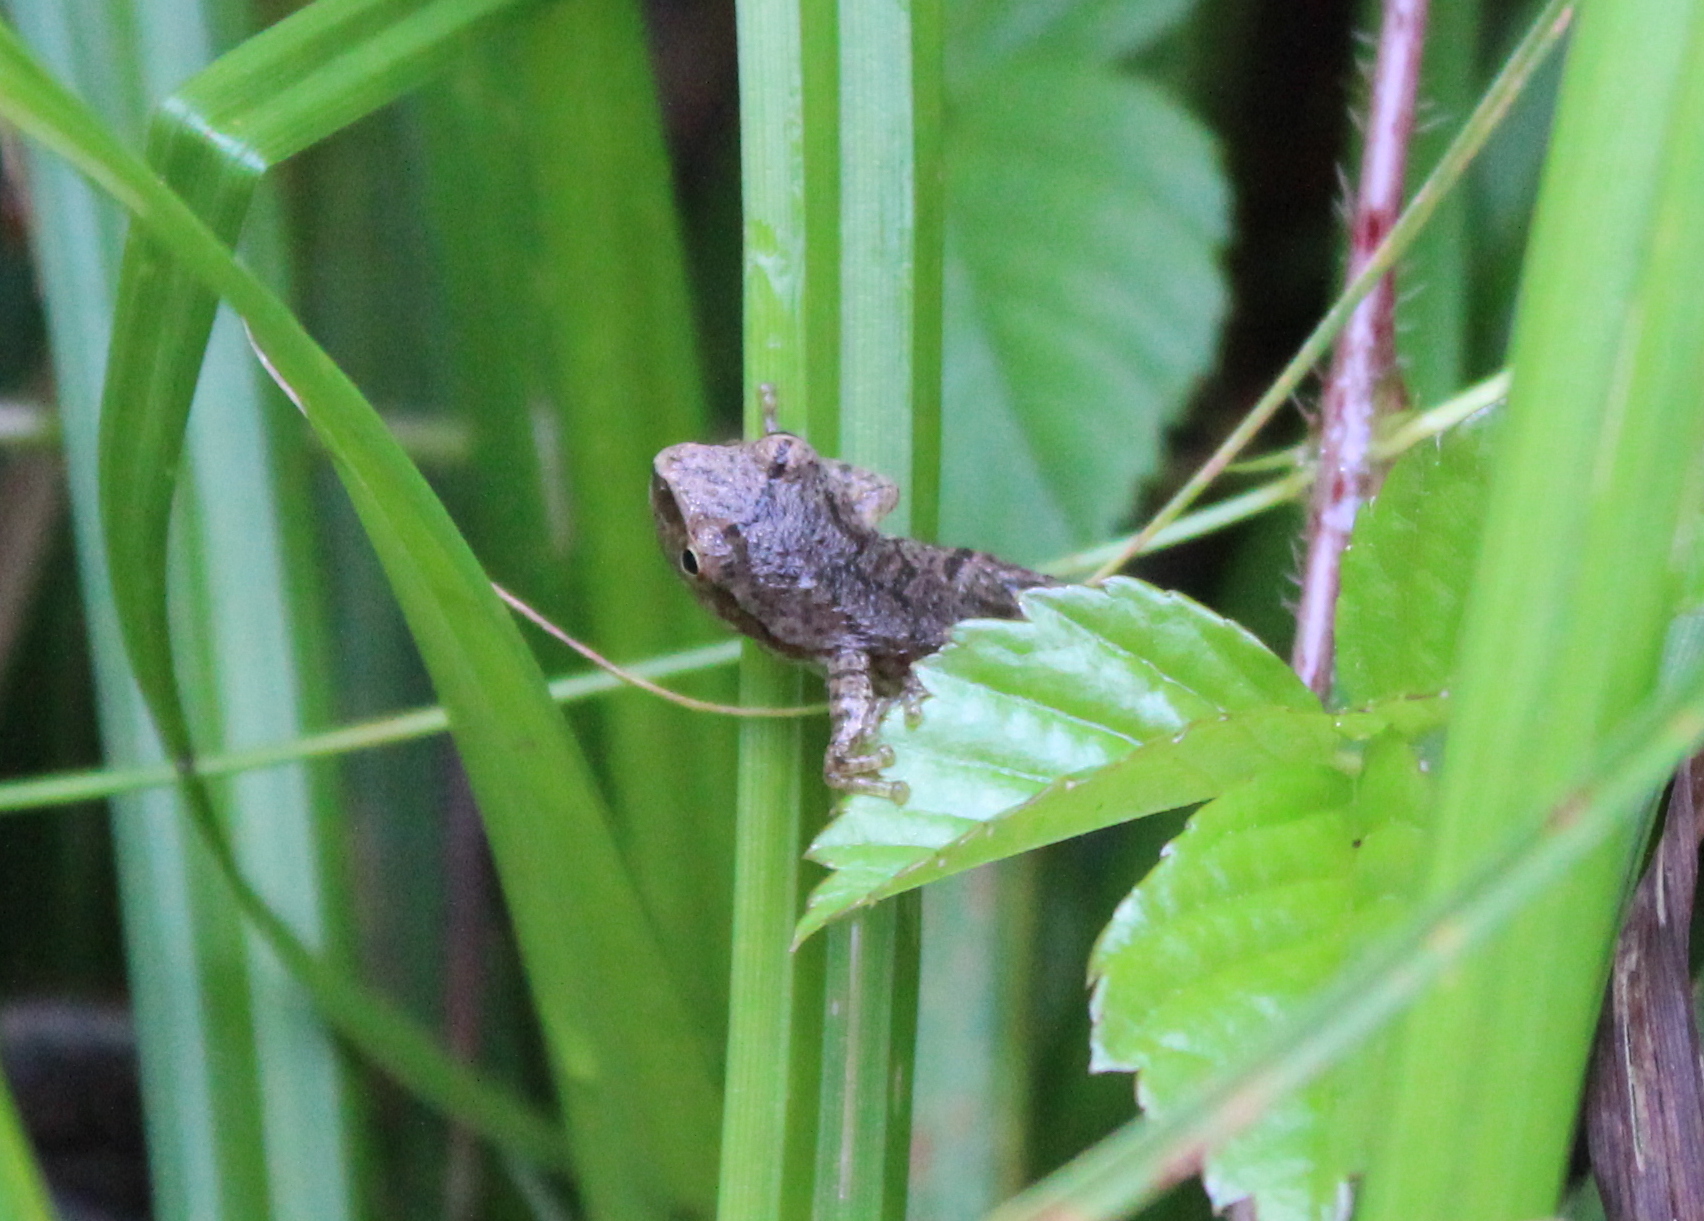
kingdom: Animalia
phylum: Chordata
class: Amphibia
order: Anura
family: Hylidae
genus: Pseudacris
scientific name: Pseudacris crucifer
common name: Spring peeper
